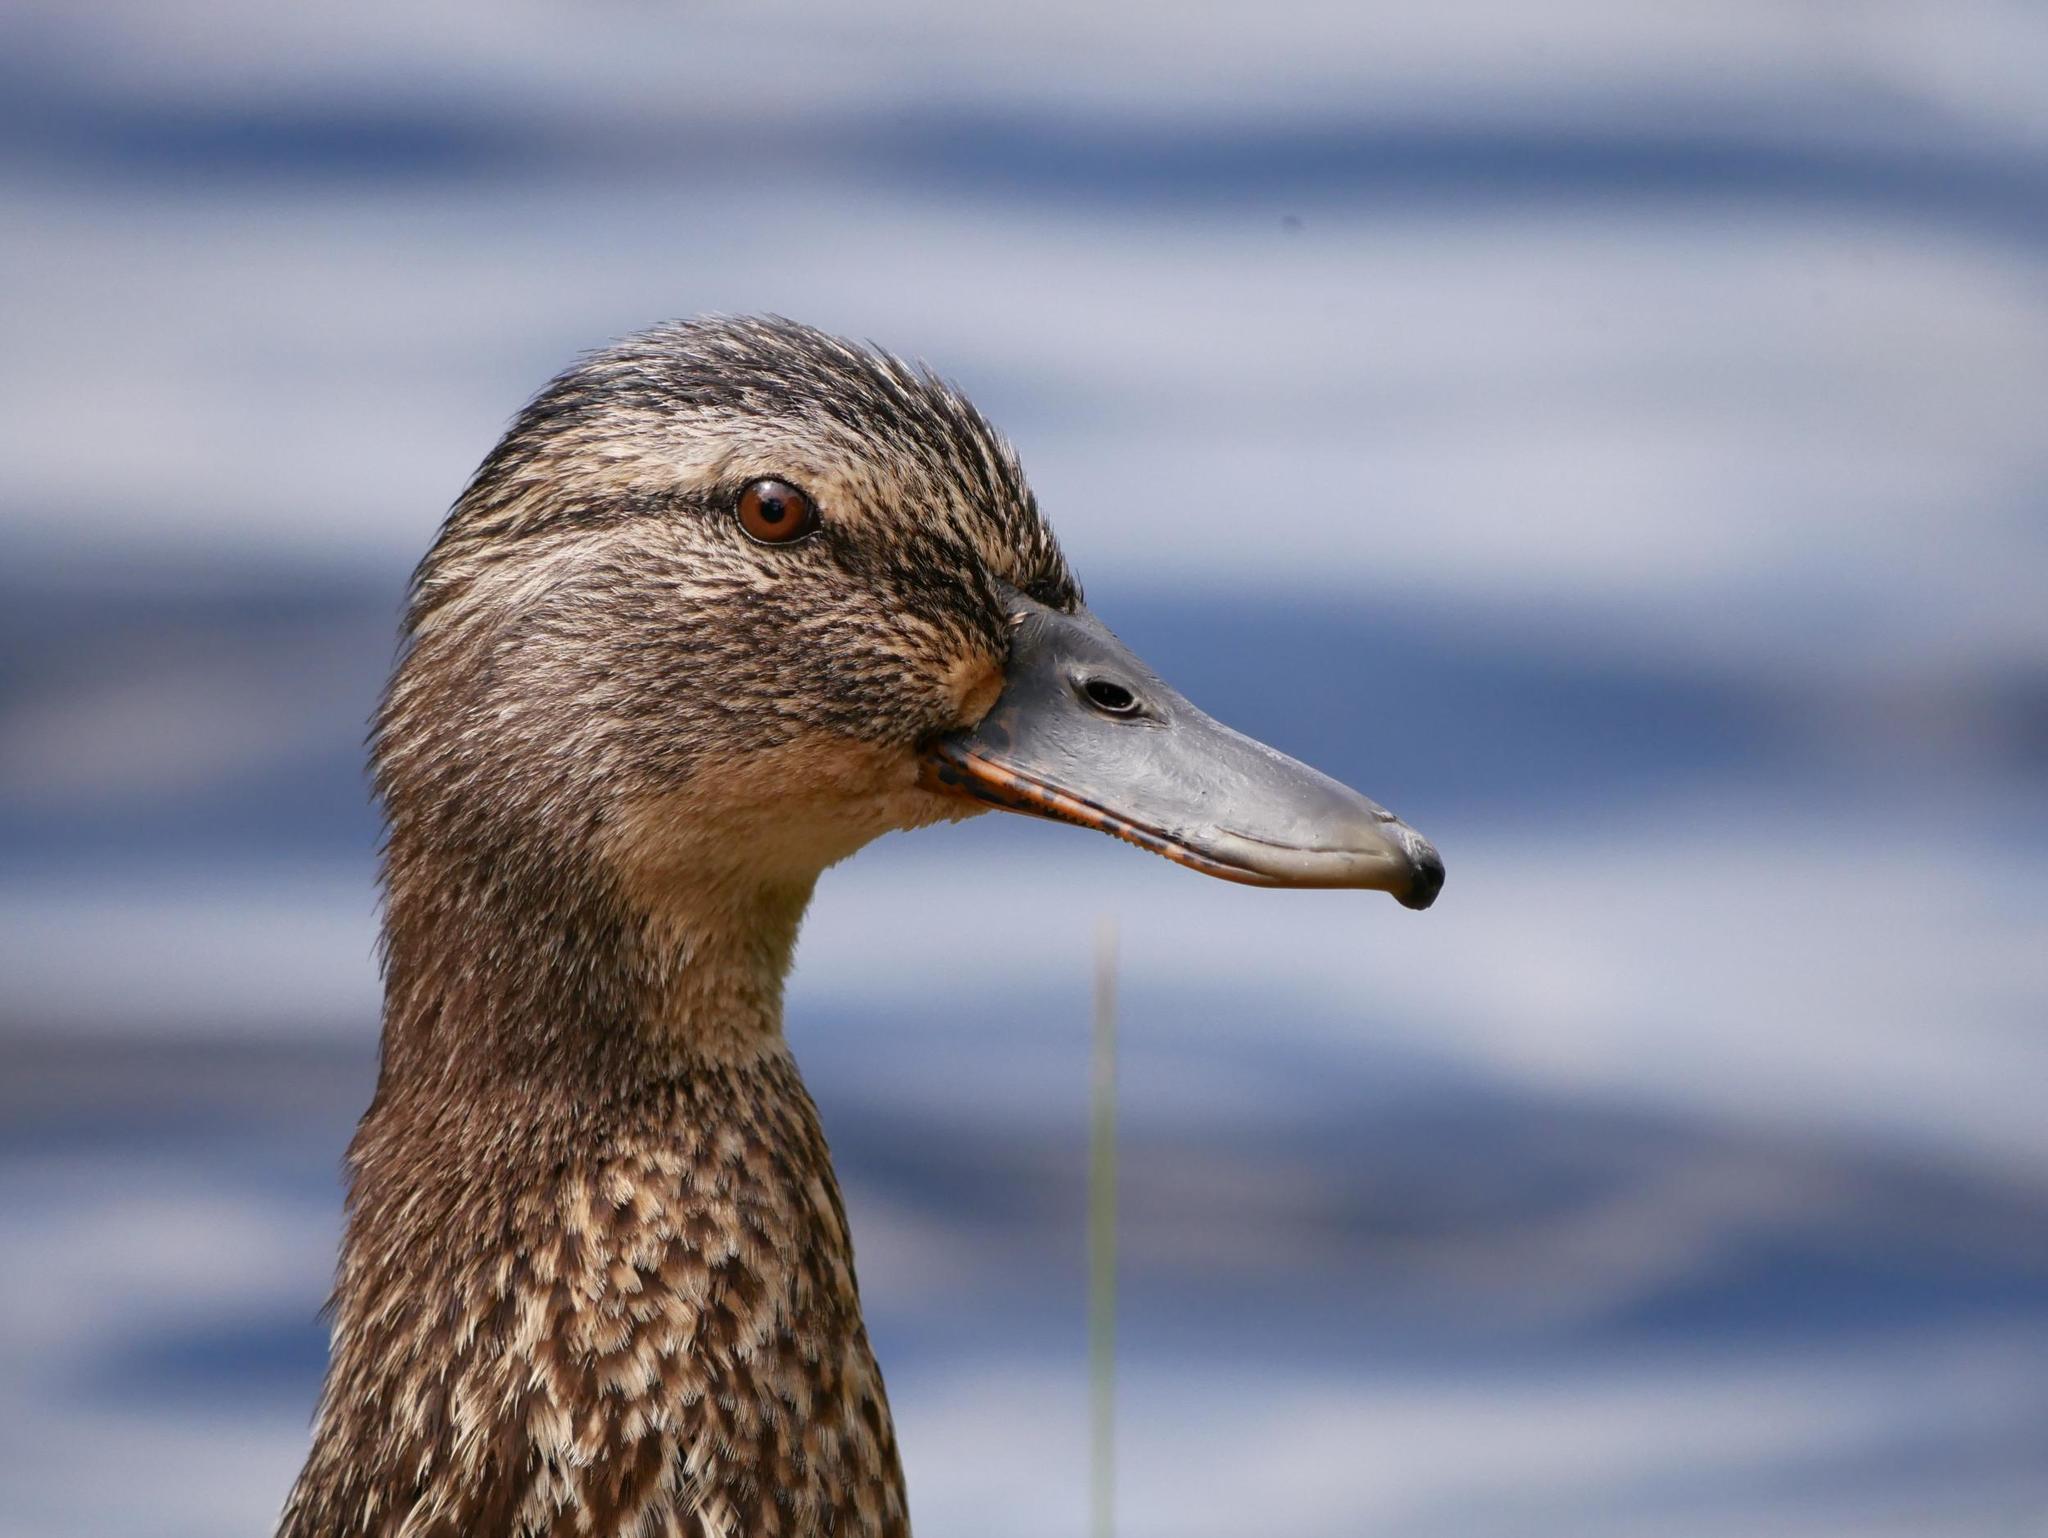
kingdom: Animalia
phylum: Chordata
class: Aves
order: Anseriformes
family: Anatidae
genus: Anas
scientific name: Anas platyrhynchos
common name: Mallard
